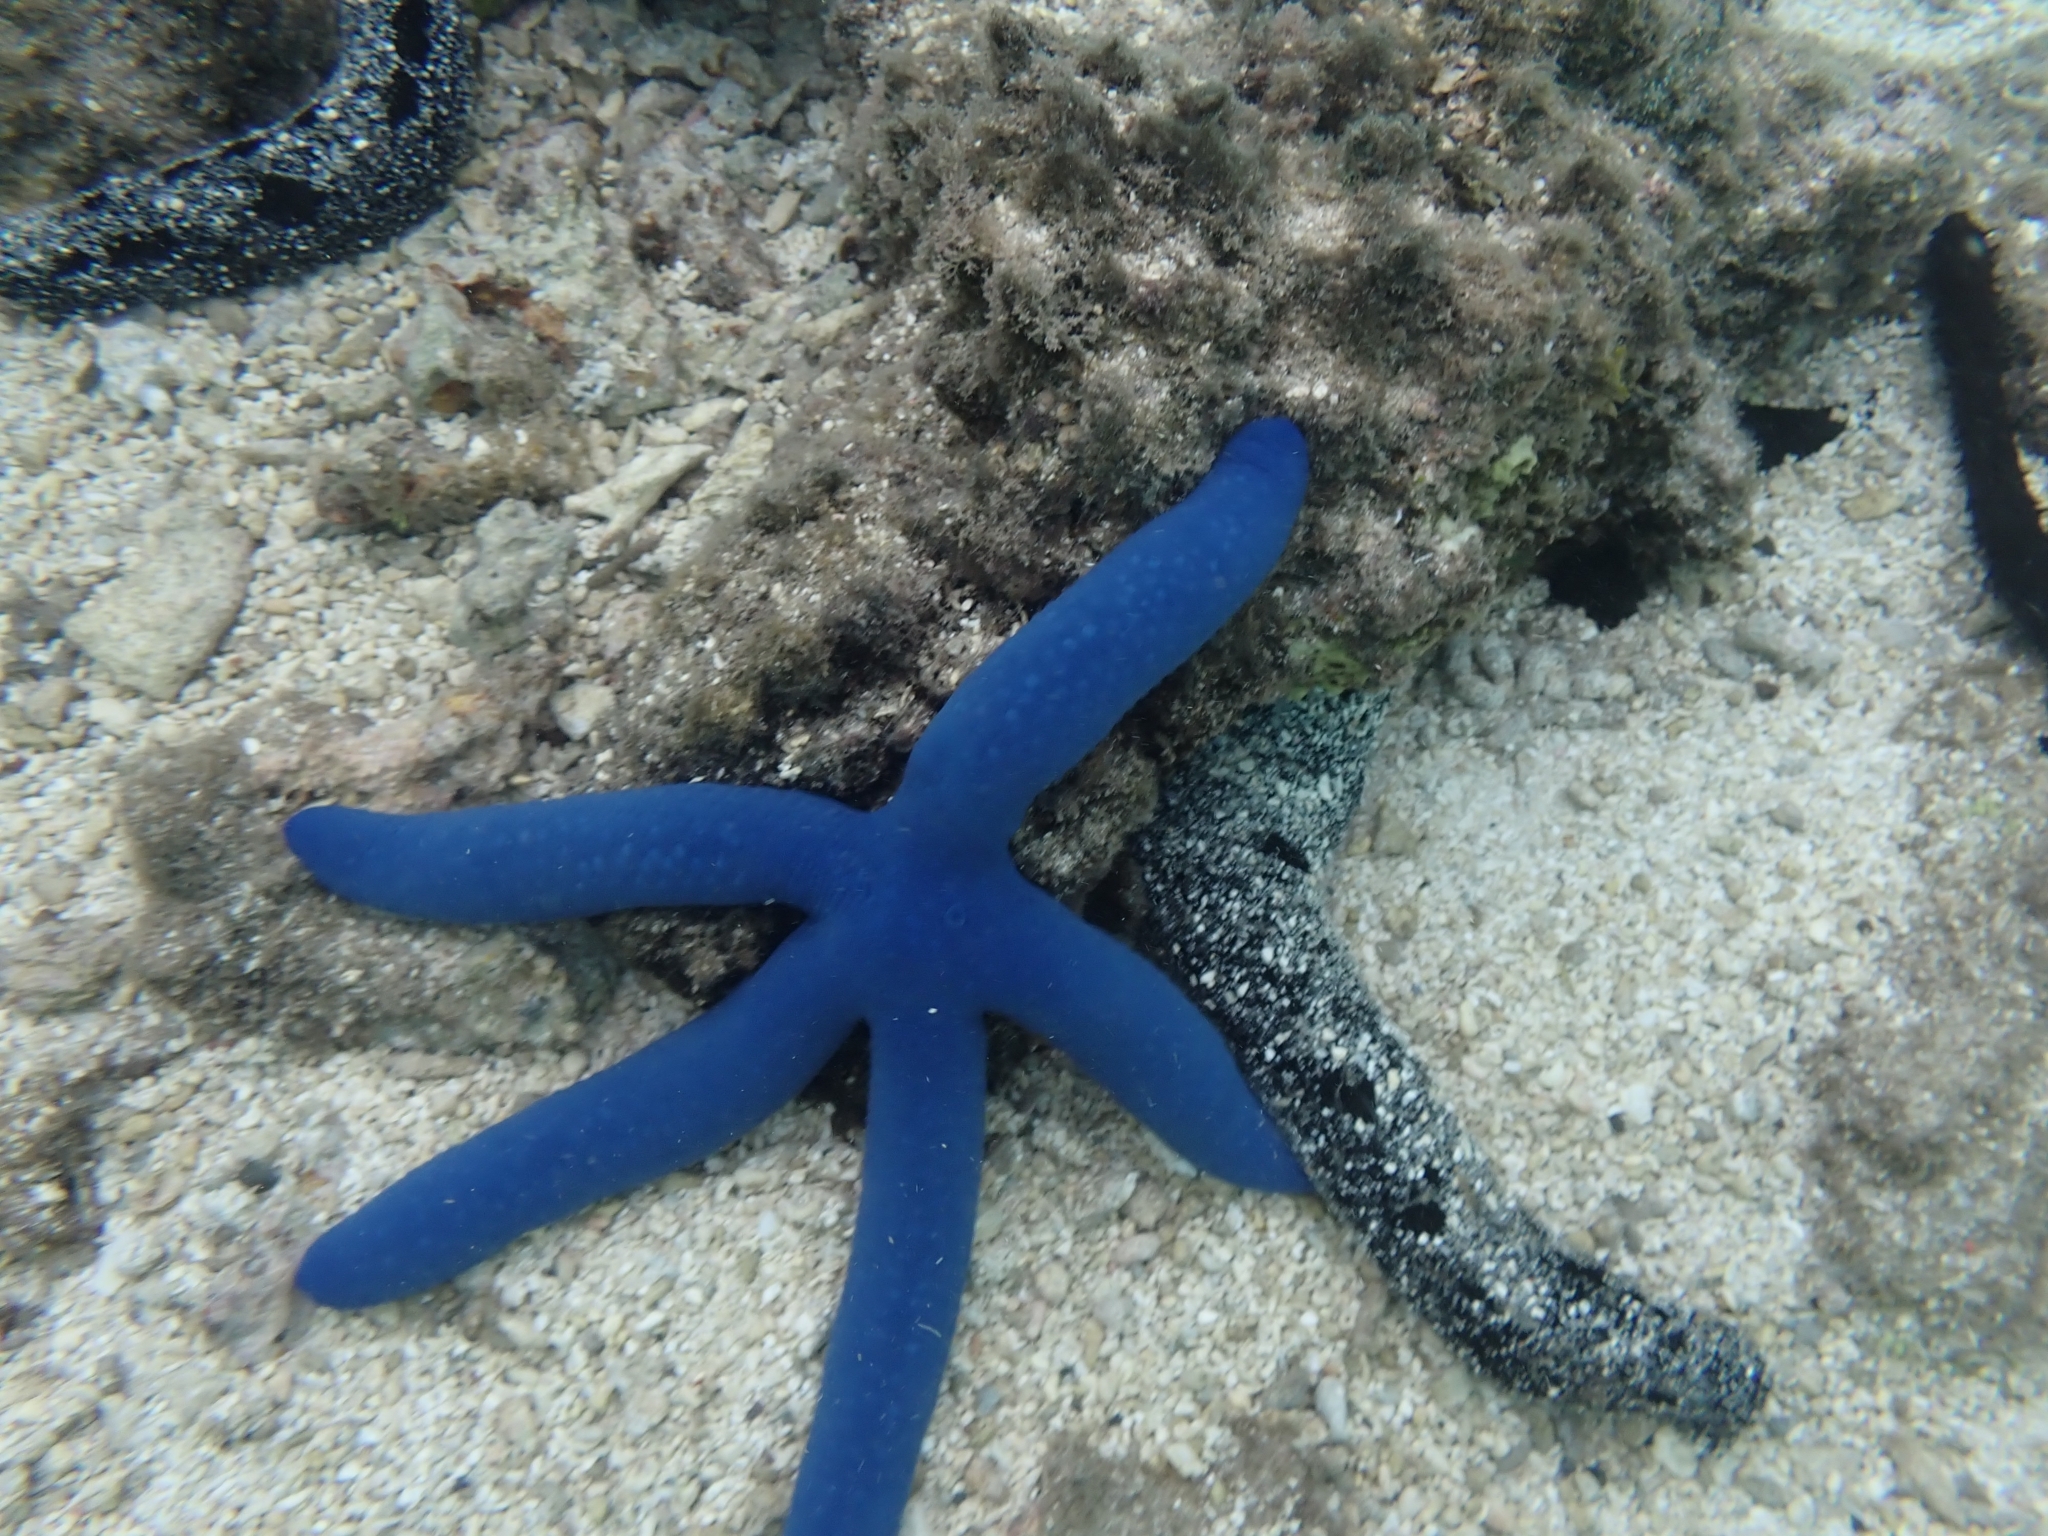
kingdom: Animalia
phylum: Echinodermata
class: Asteroidea
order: Valvatida
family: Ophidiasteridae
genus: Linckia
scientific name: Linckia laevigata
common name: Azure sea star
